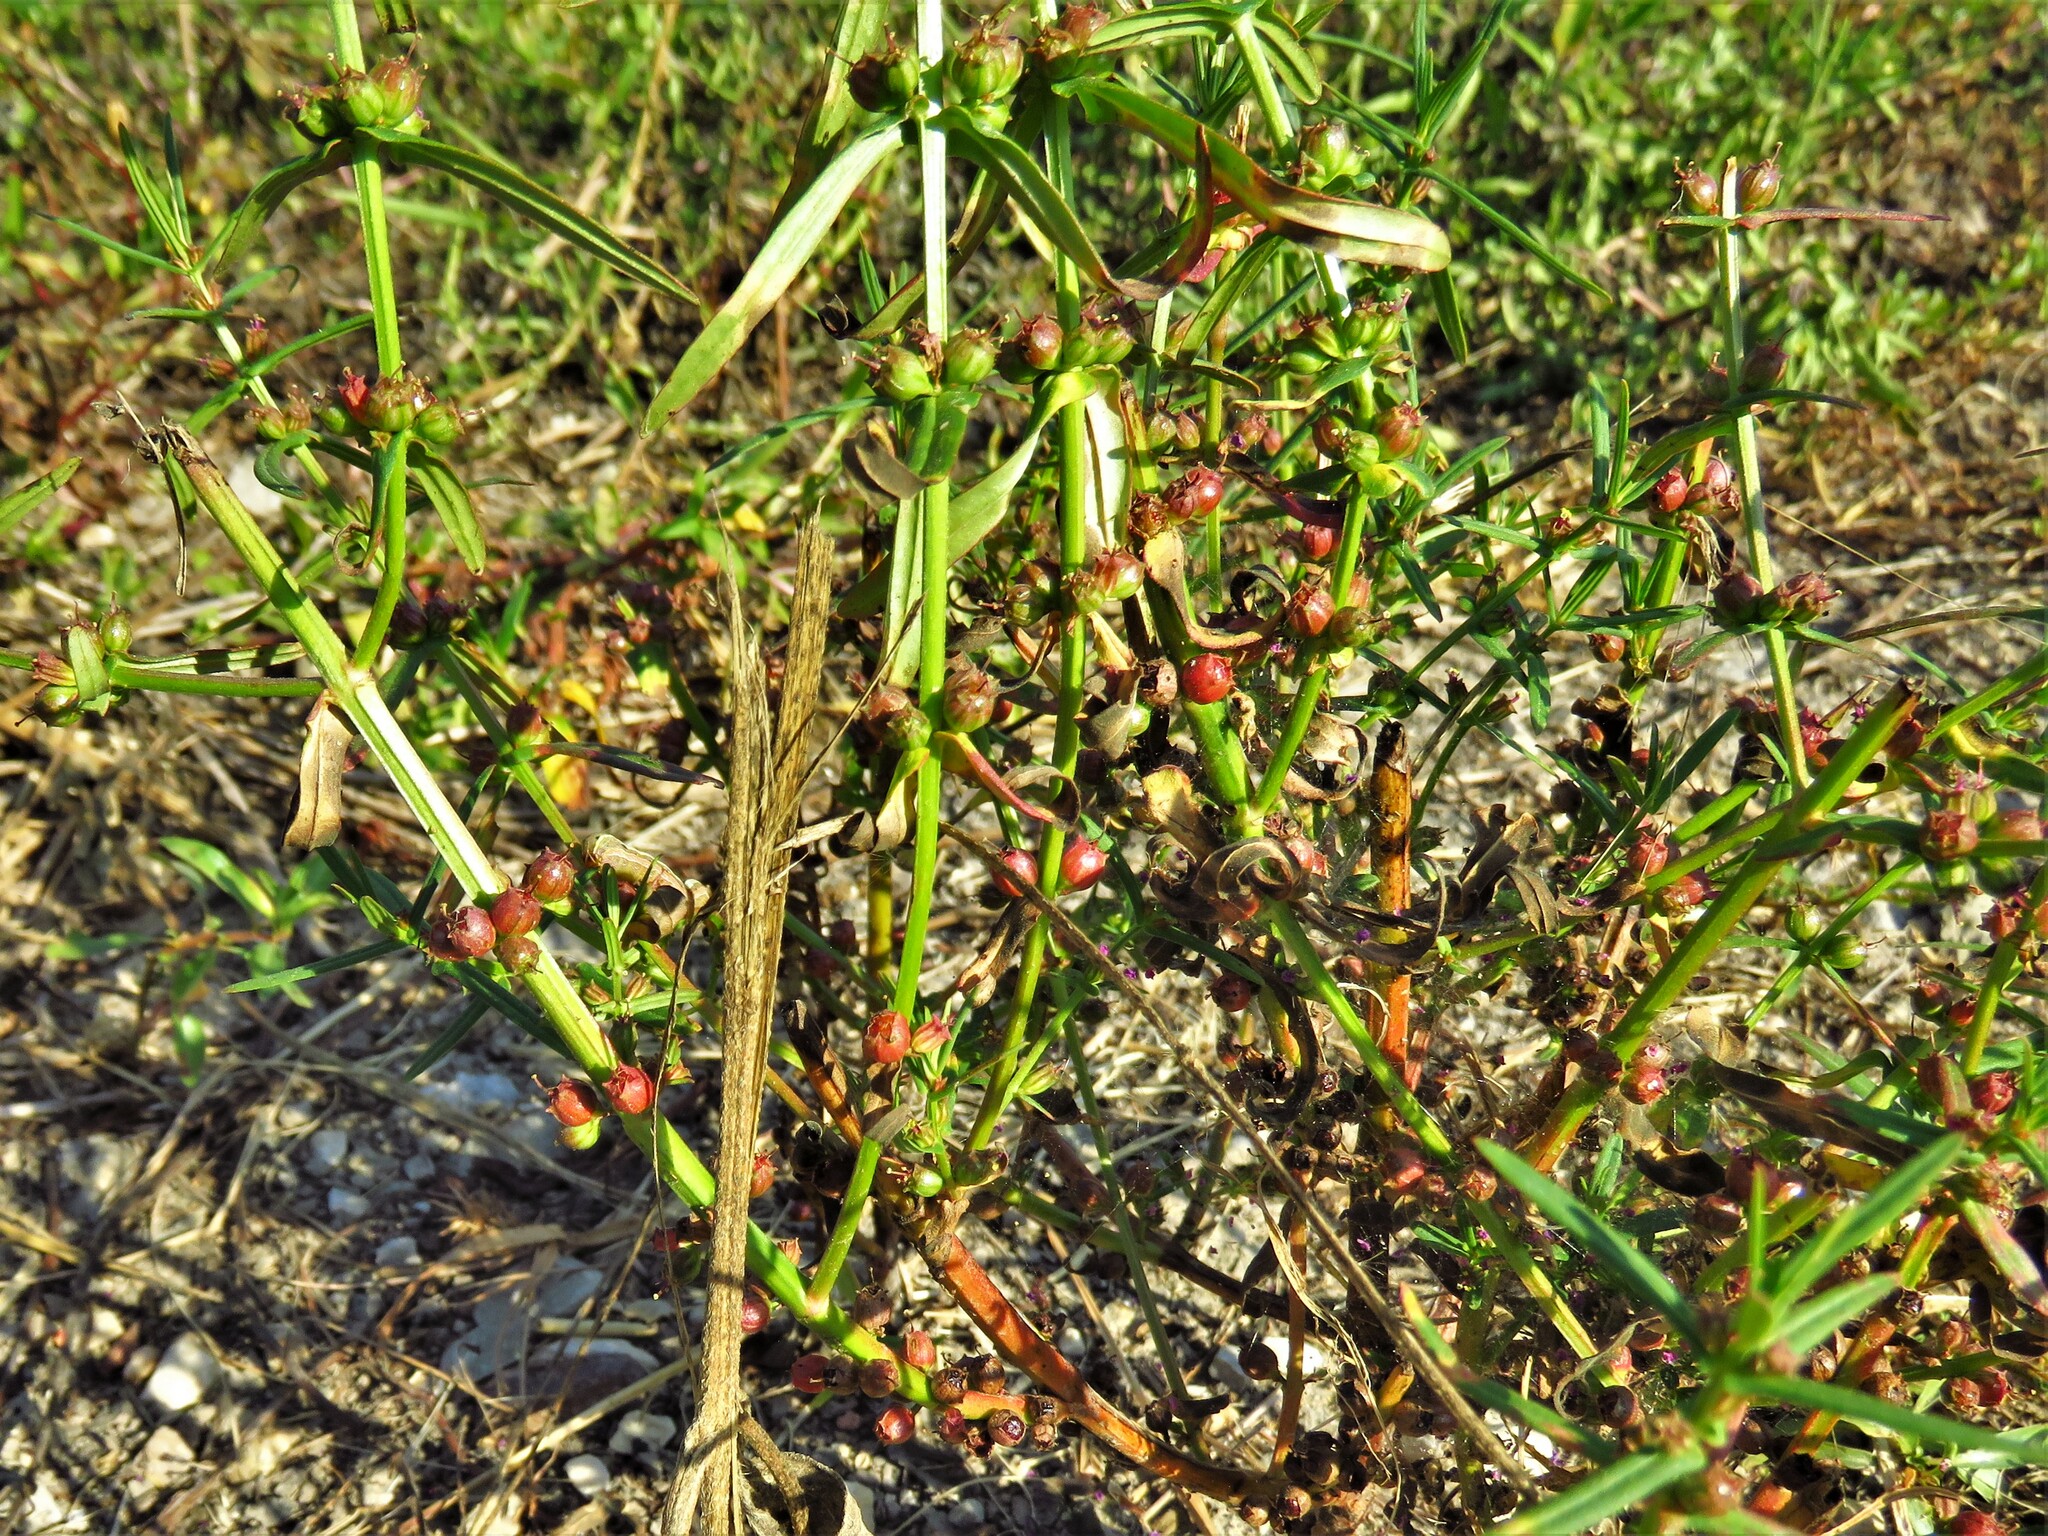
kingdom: Plantae
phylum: Tracheophyta
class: Magnoliopsida
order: Myrtales
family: Lythraceae
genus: Ammannia
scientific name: Ammannia coccinea
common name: Valley redstem
